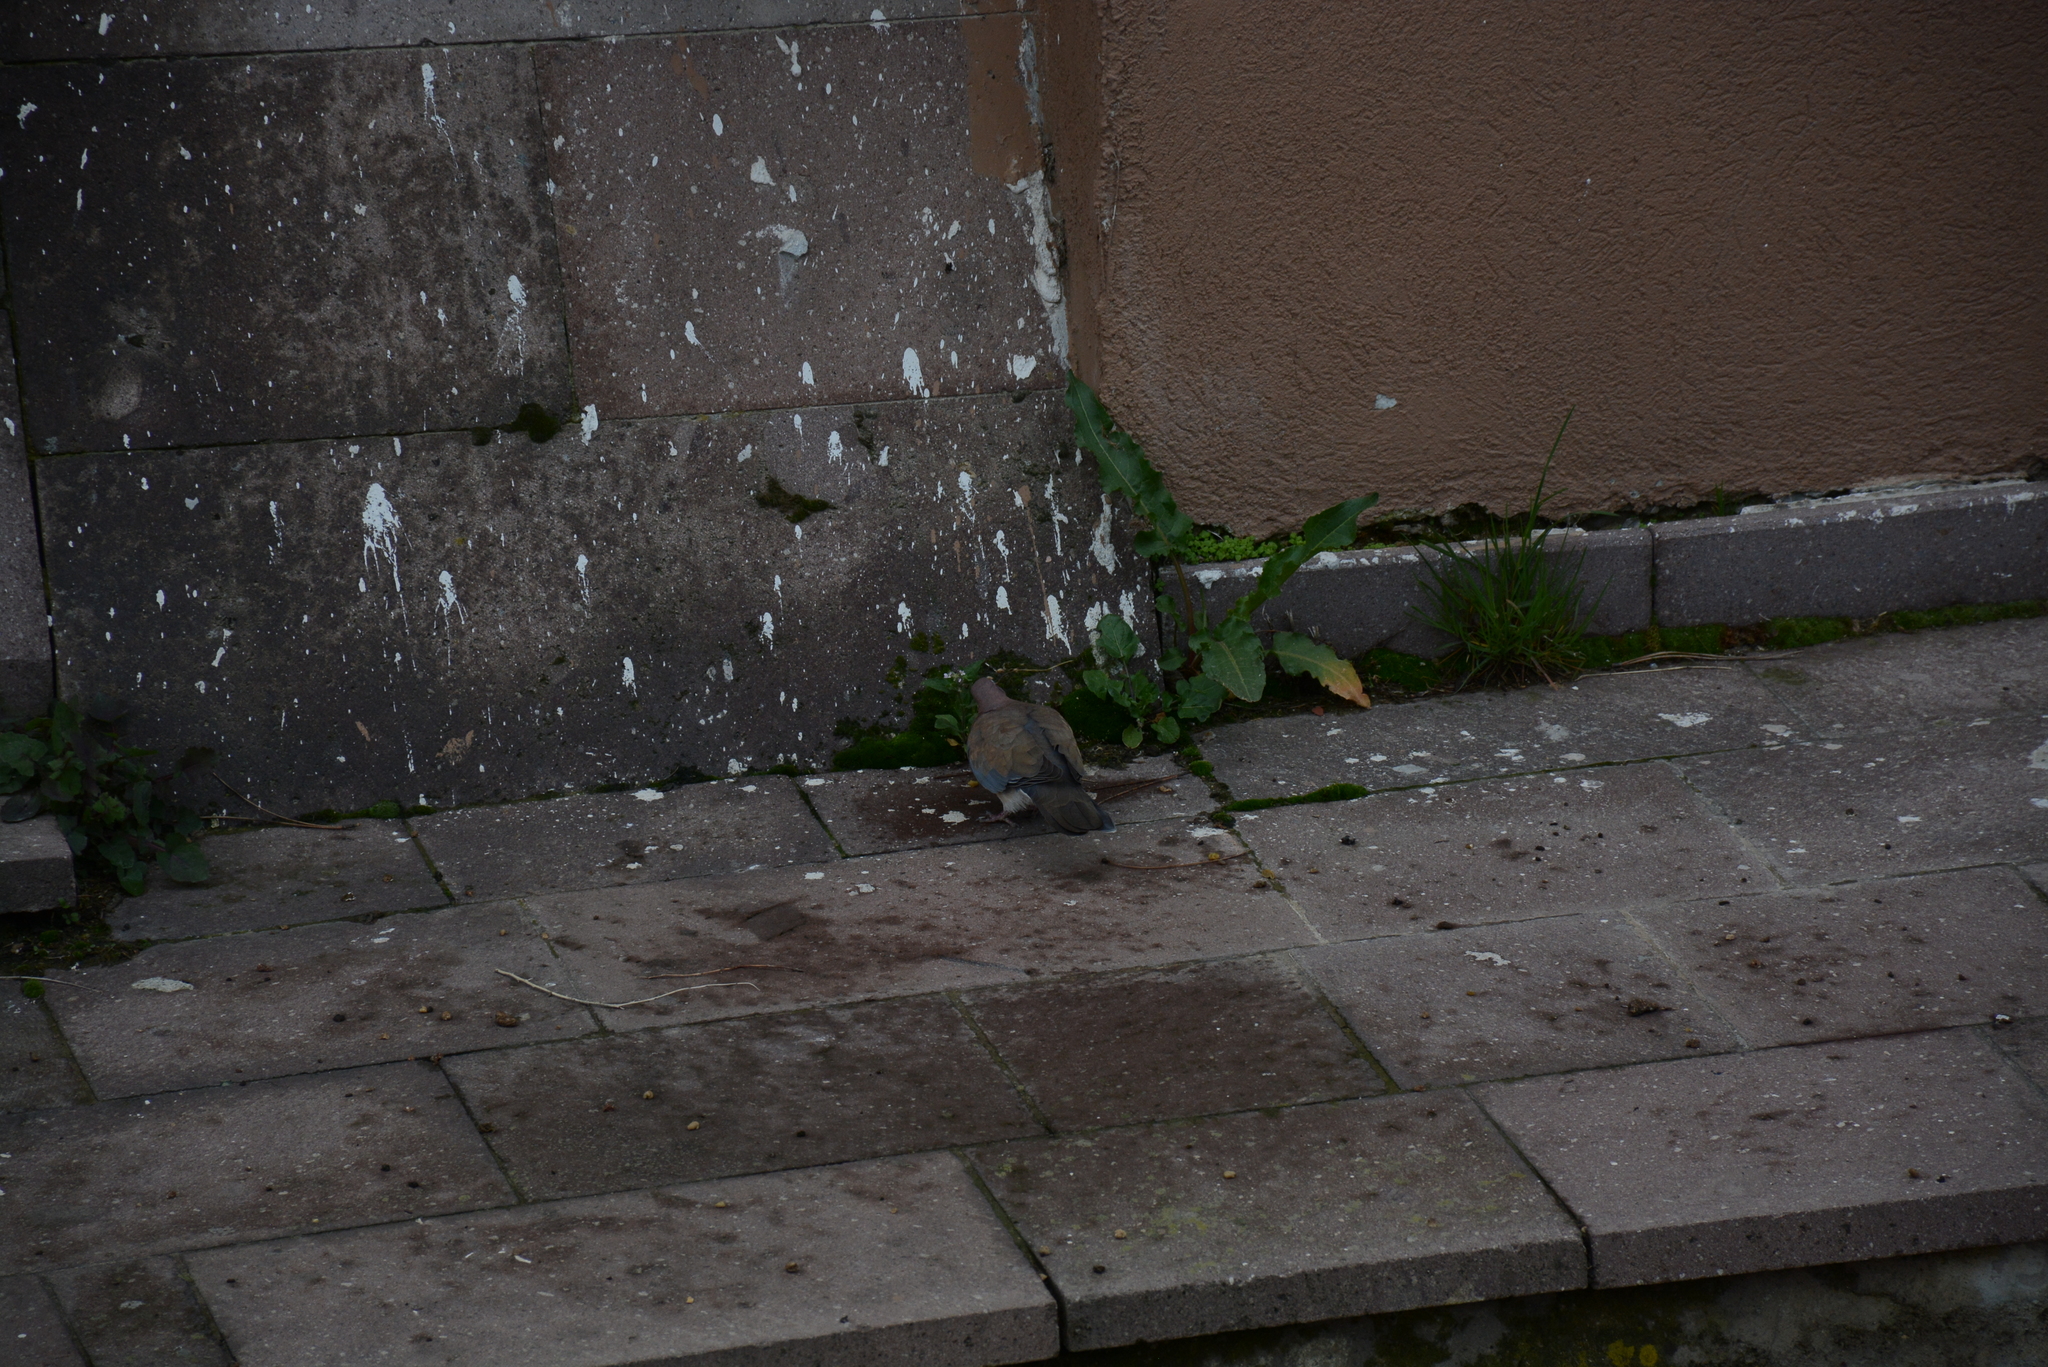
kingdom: Animalia
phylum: Chordata
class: Aves
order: Columbiformes
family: Columbidae
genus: Spilopelia
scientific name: Spilopelia senegalensis
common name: Laughing dove
